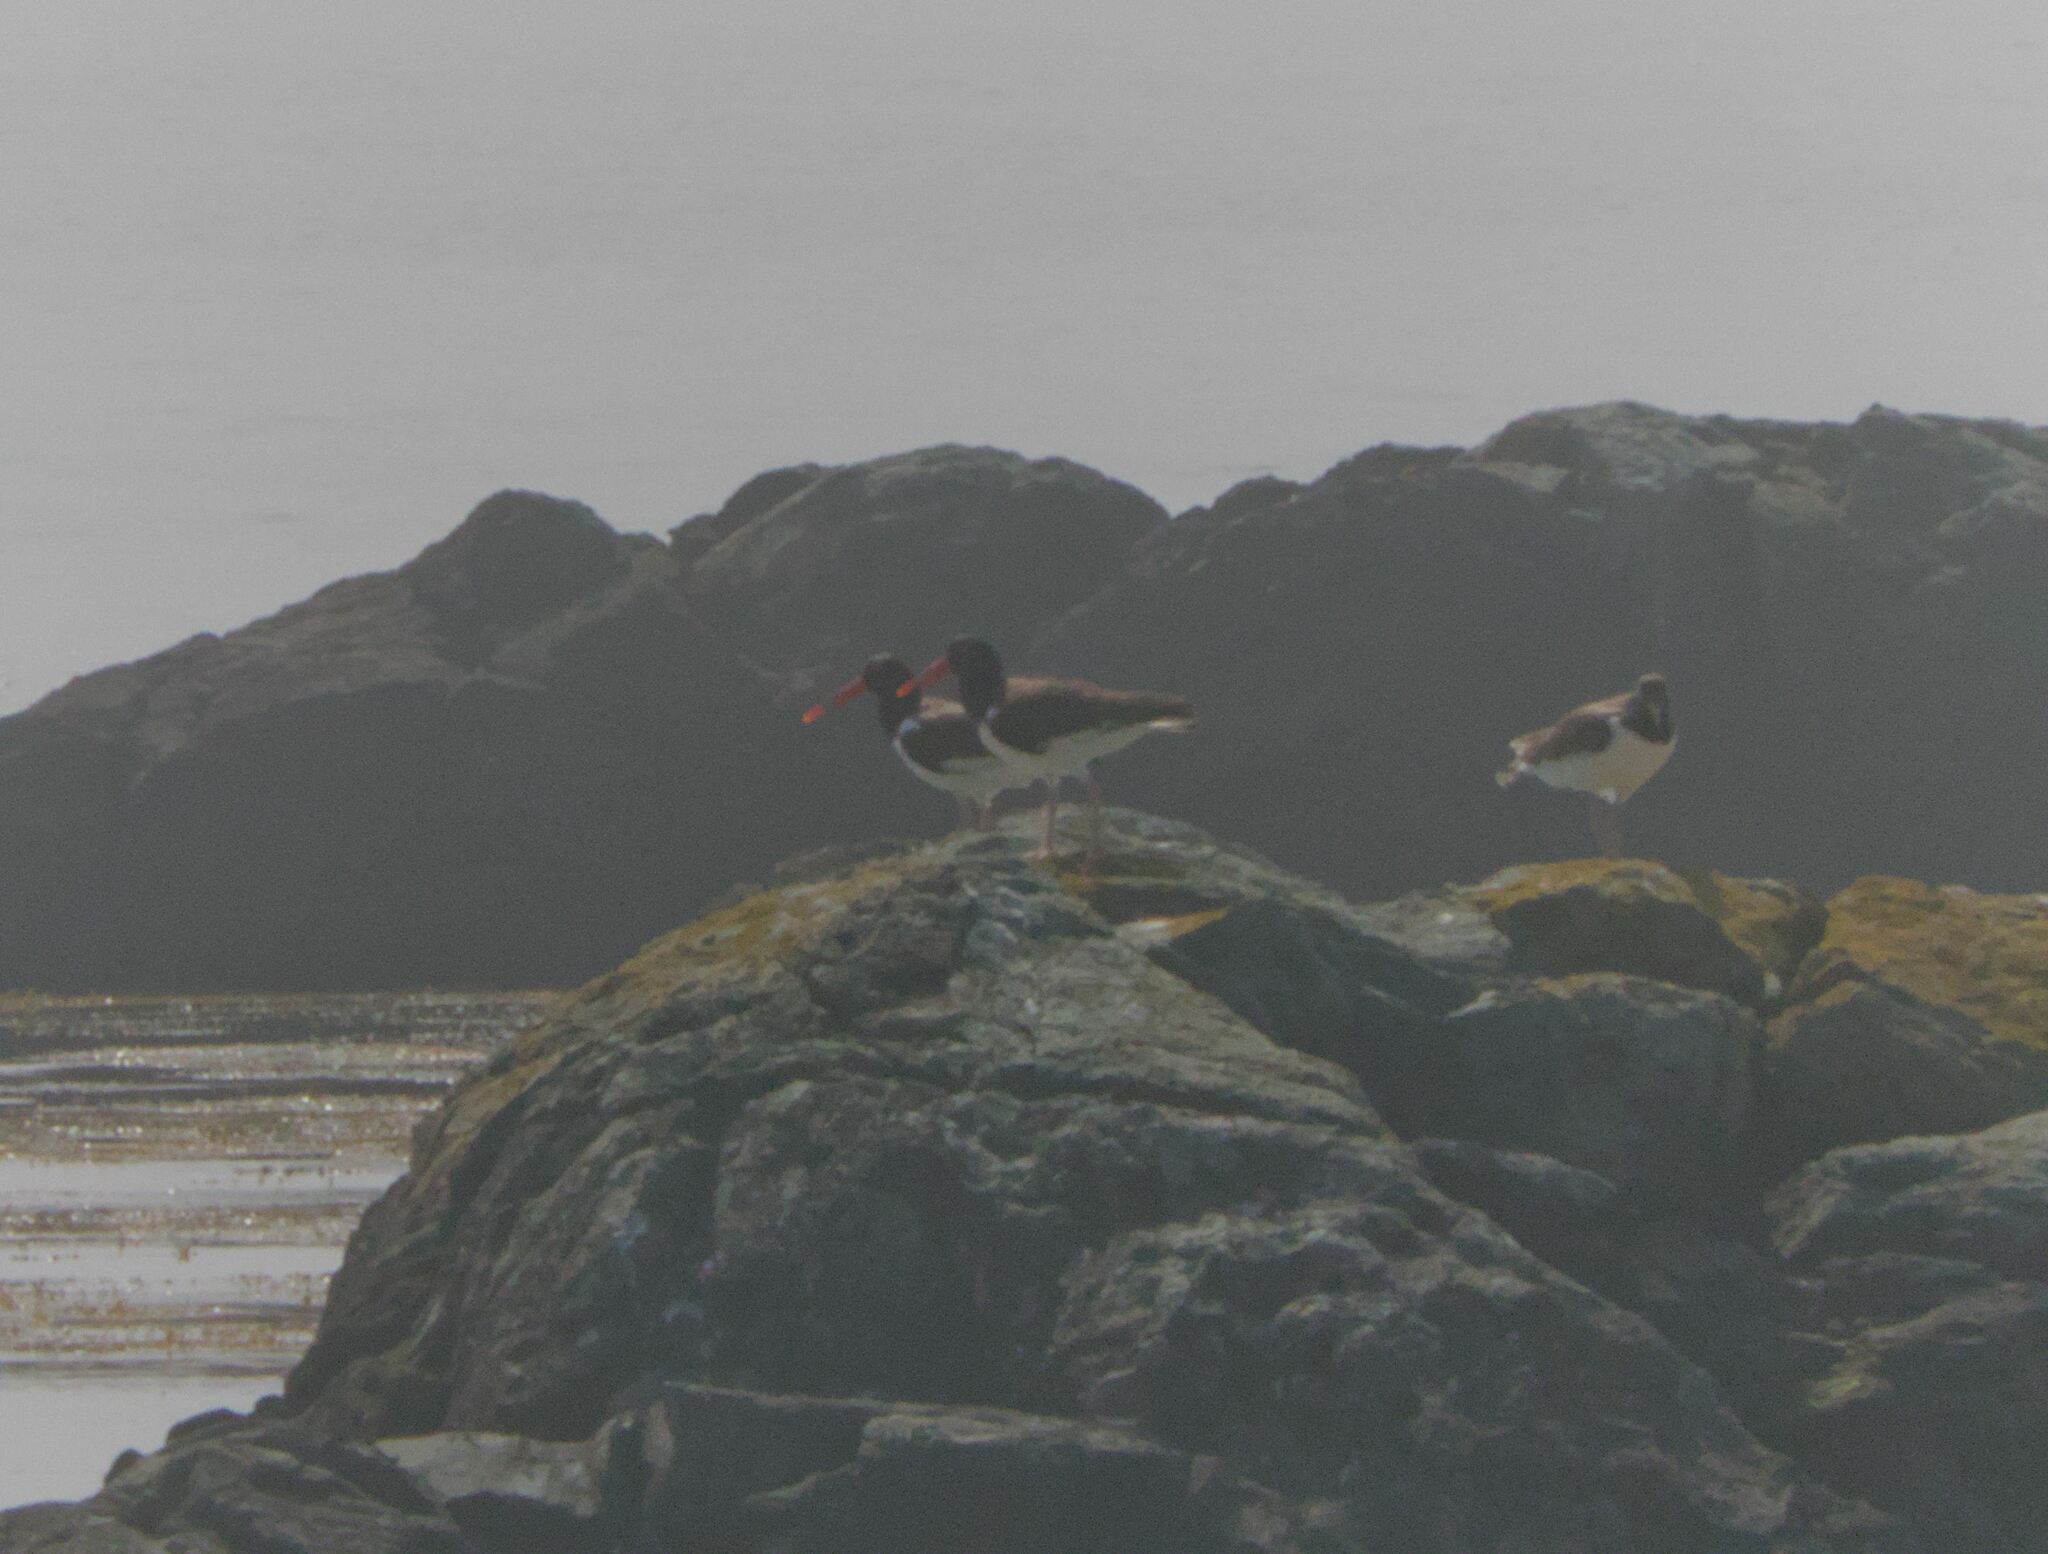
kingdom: Animalia
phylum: Chordata
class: Aves
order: Charadriiformes
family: Haematopodidae
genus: Haematopus
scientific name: Haematopus palliatus
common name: American oystercatcher
